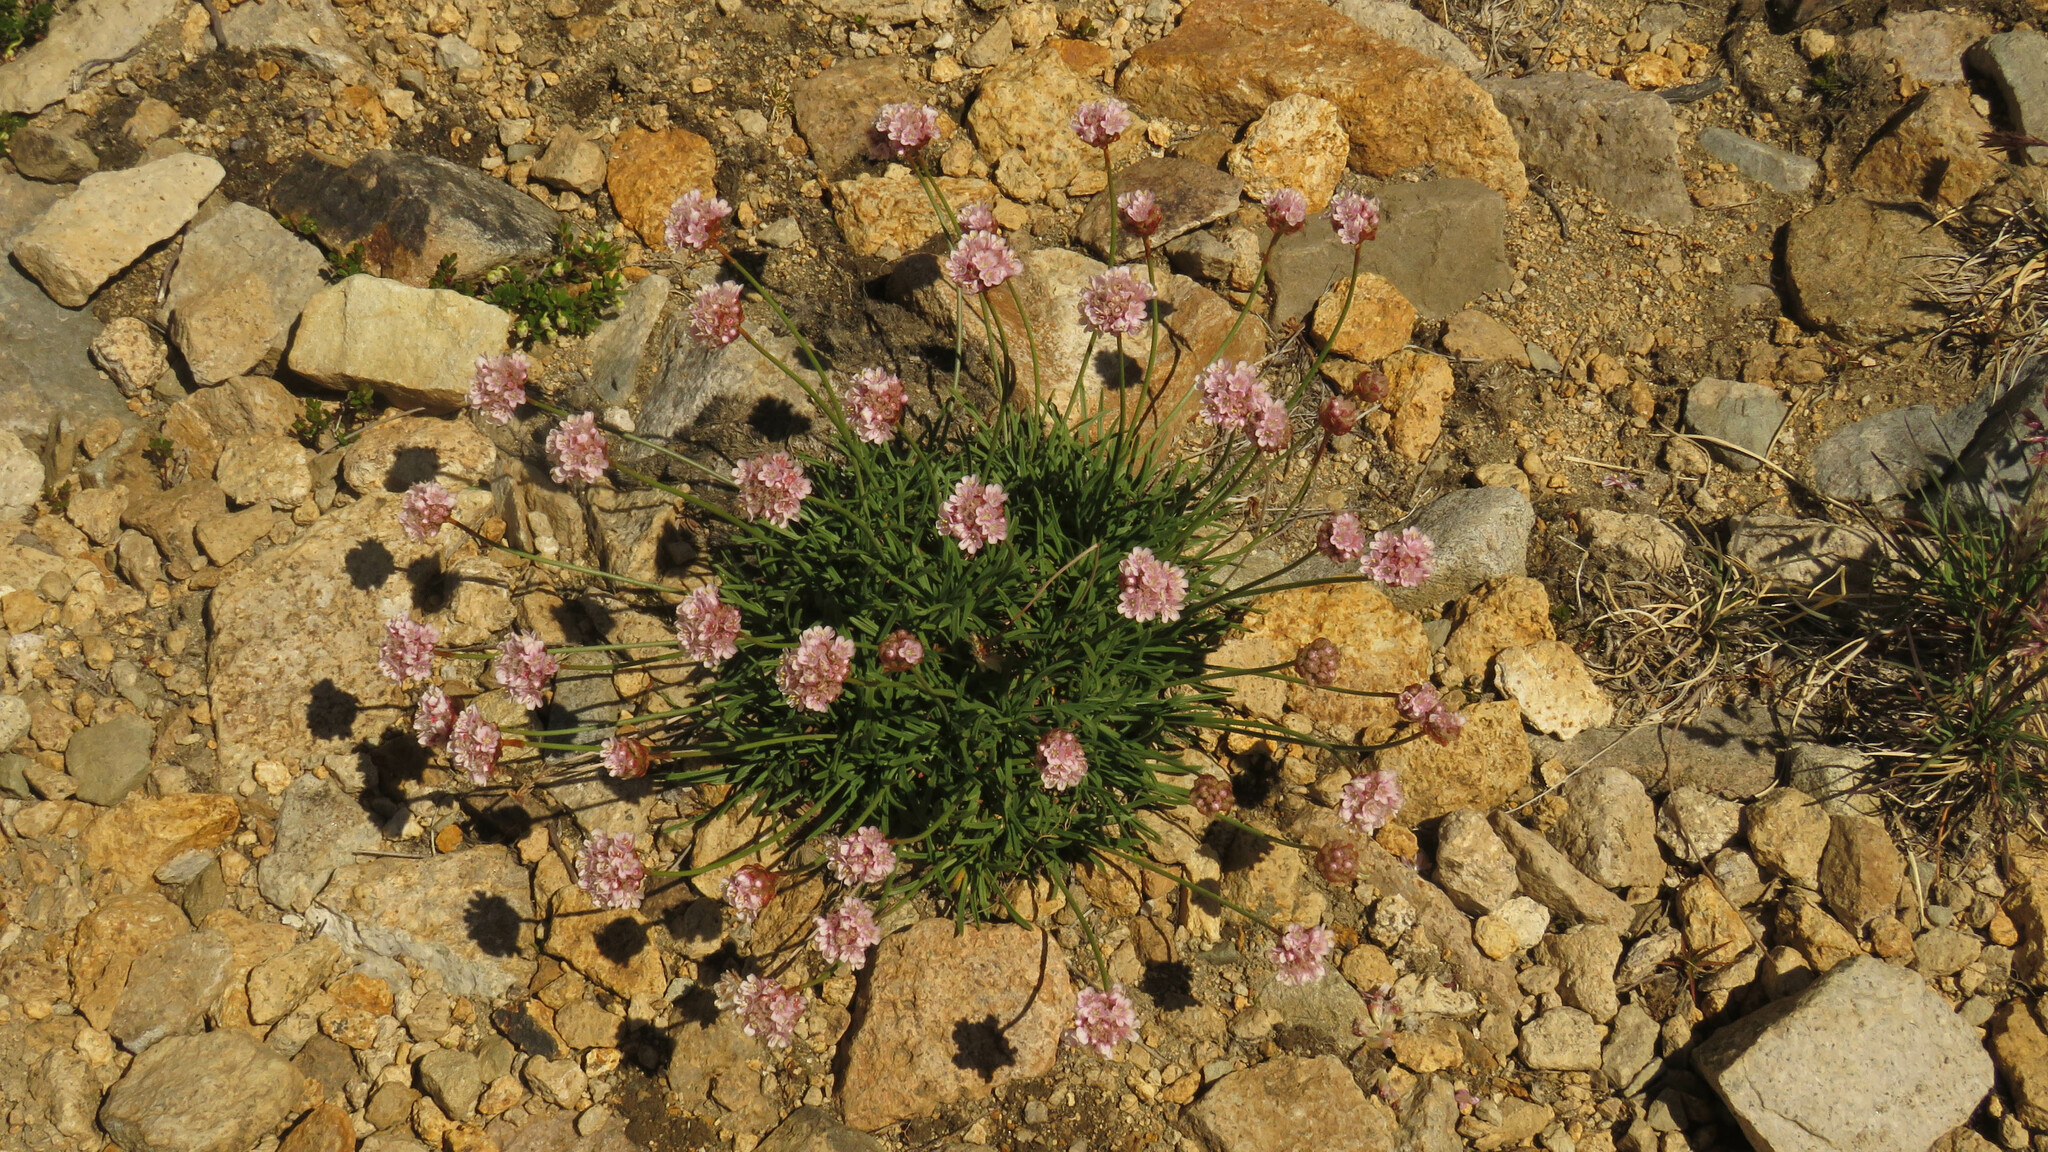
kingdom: Plantae
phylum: Tracheophyta
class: Magnoliopsida
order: Caryophyllales
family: Plumbaginaceae
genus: Armeria
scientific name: Armeria curvifolia
